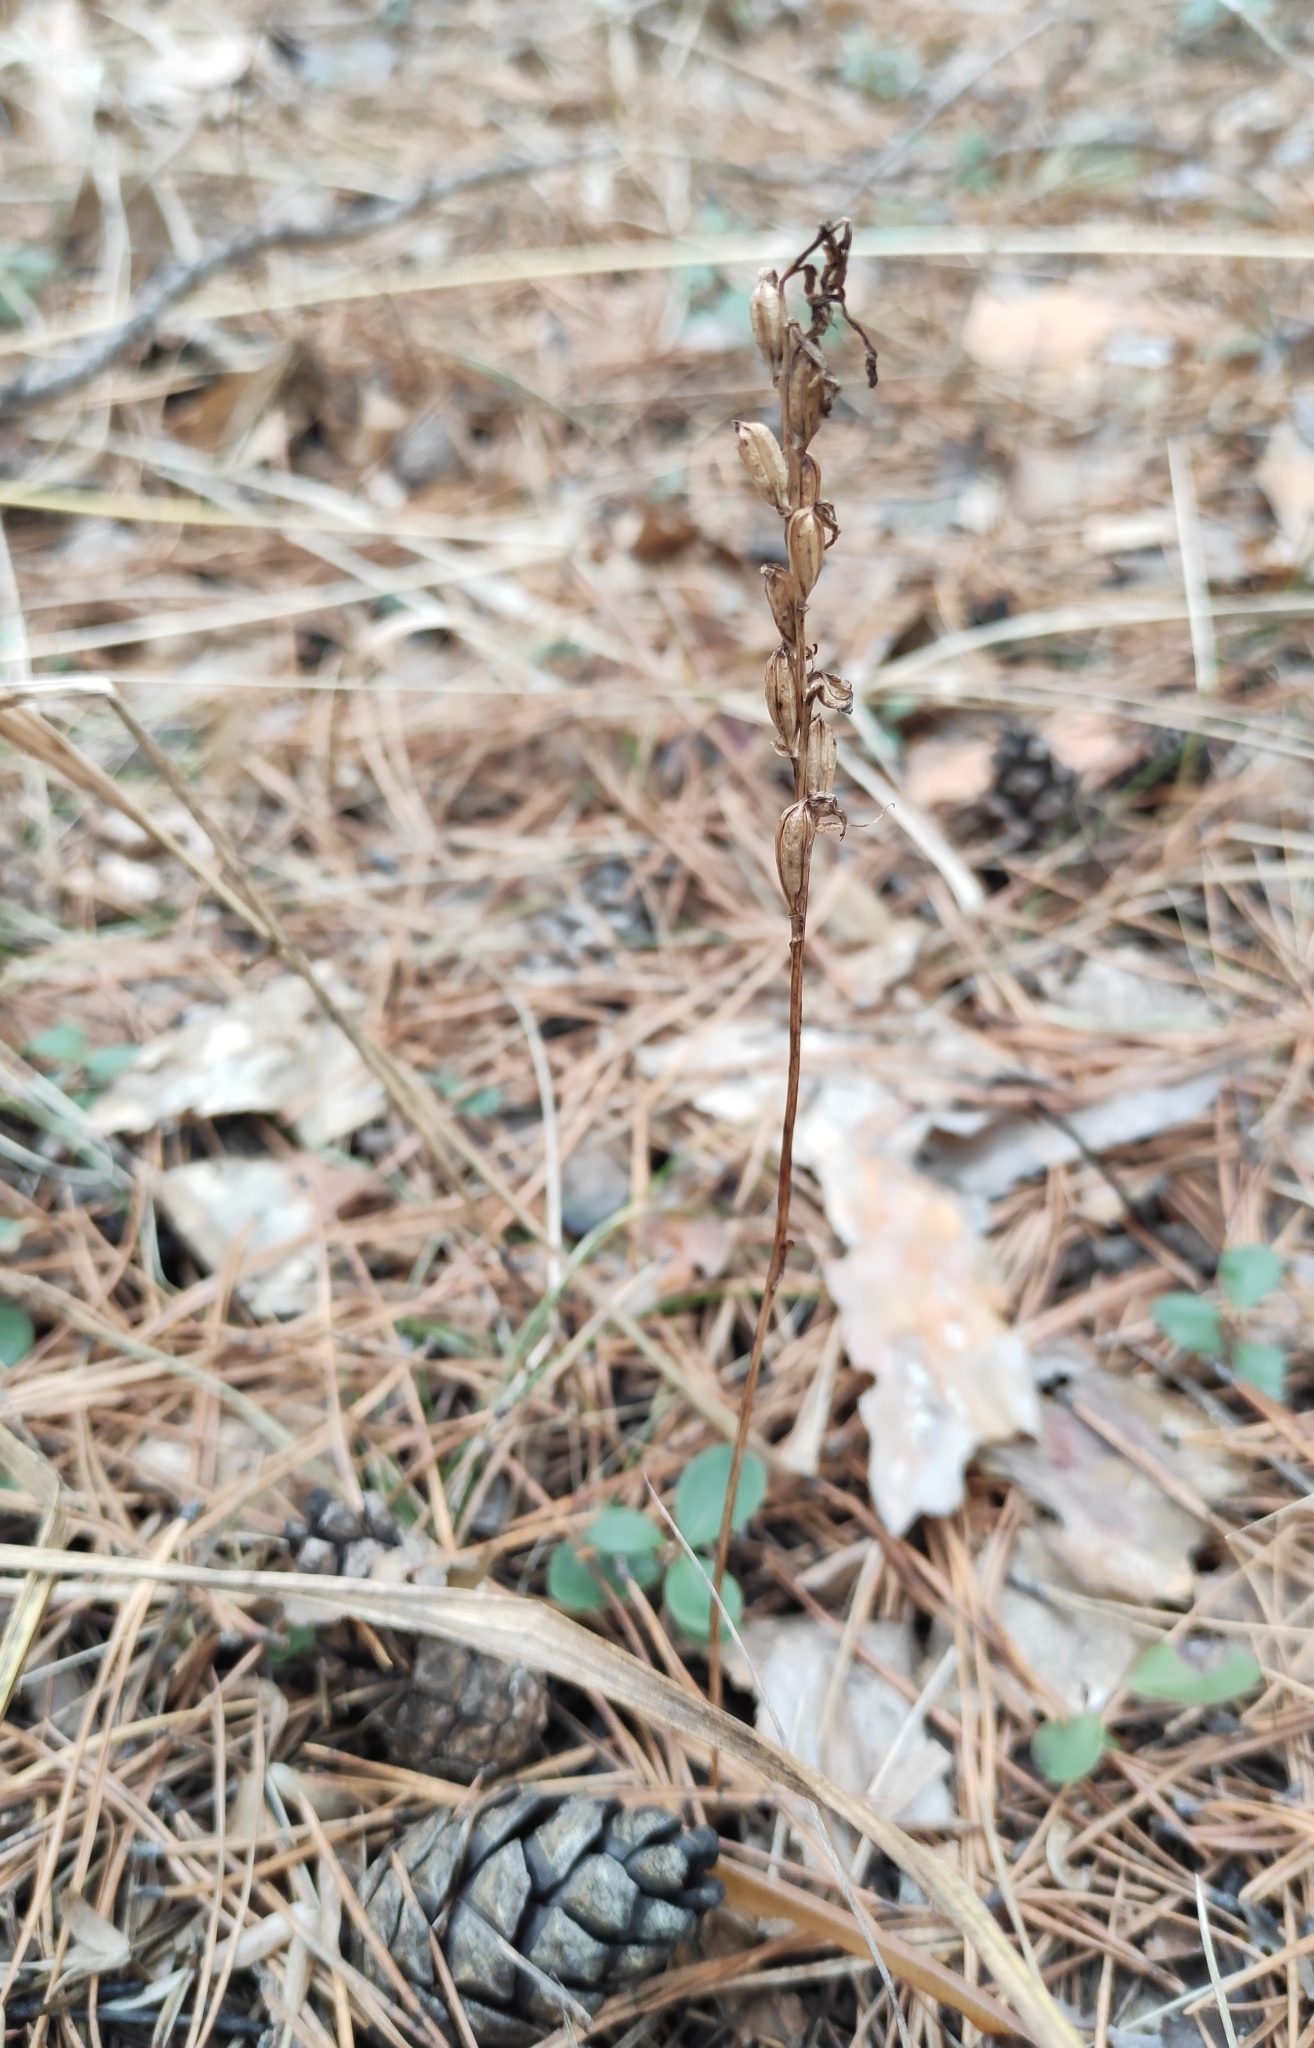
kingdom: Plantae
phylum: Tracheophyta
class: Liliopsida
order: Asparagales
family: Orchidaceae
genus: Hemipilia
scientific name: Hemipilia cucullata
